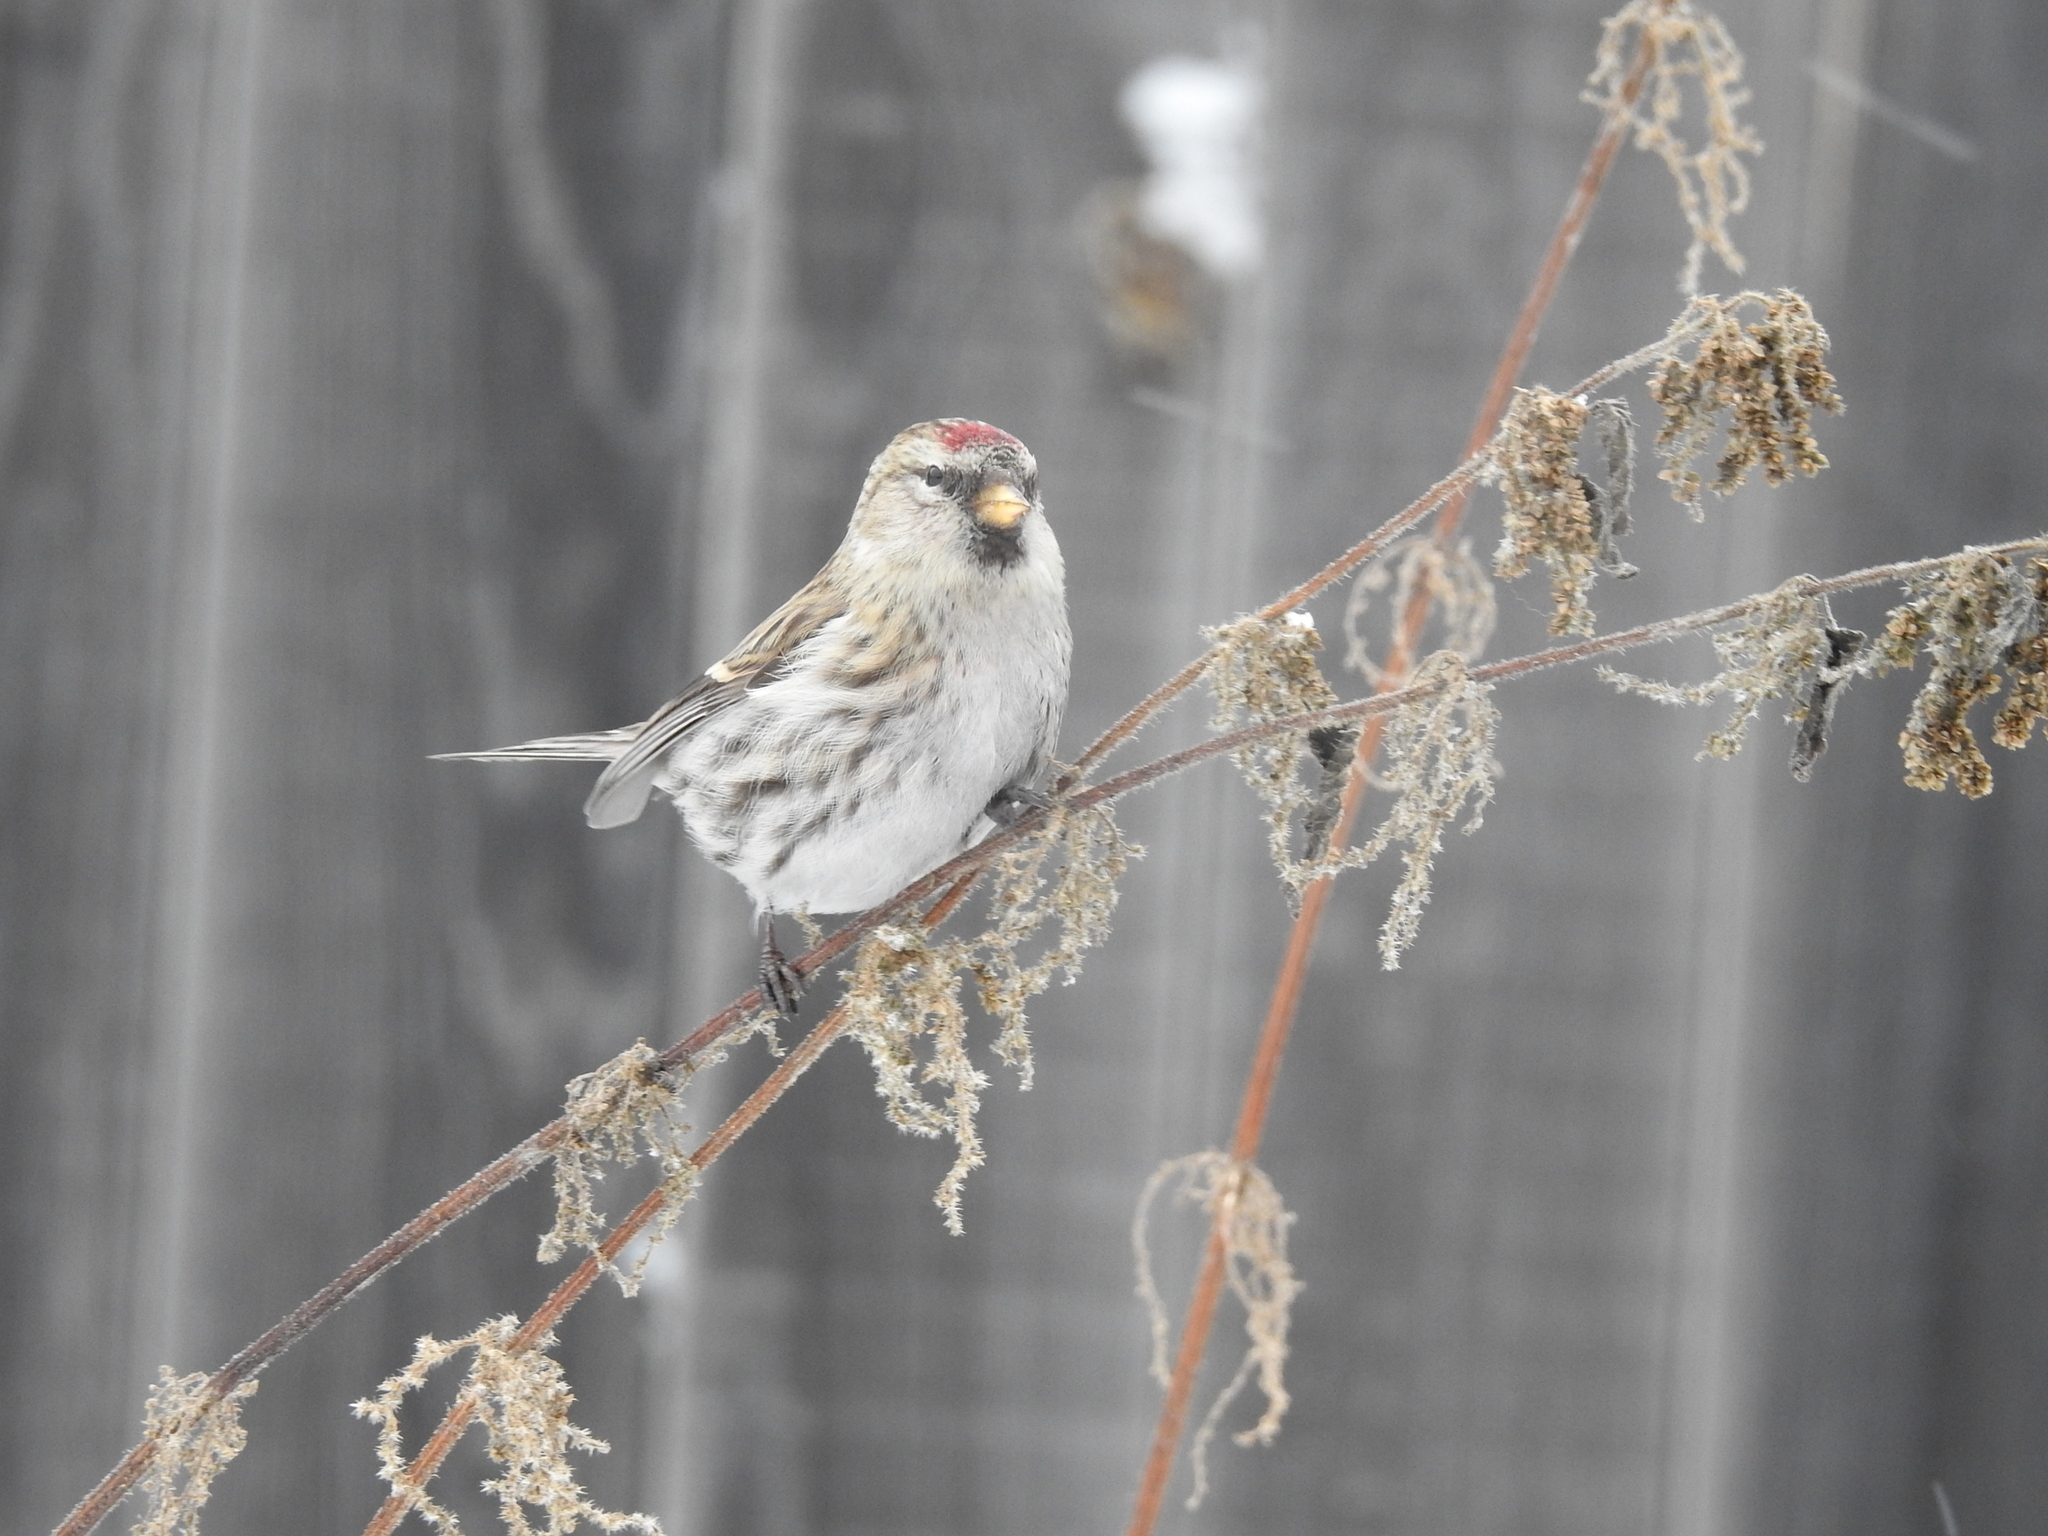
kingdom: Animalia
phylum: Chordata
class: Aves
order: Passeriformes
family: Fringillidae
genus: Acanthis
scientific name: Acanthis flammea
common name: Common redpoll
